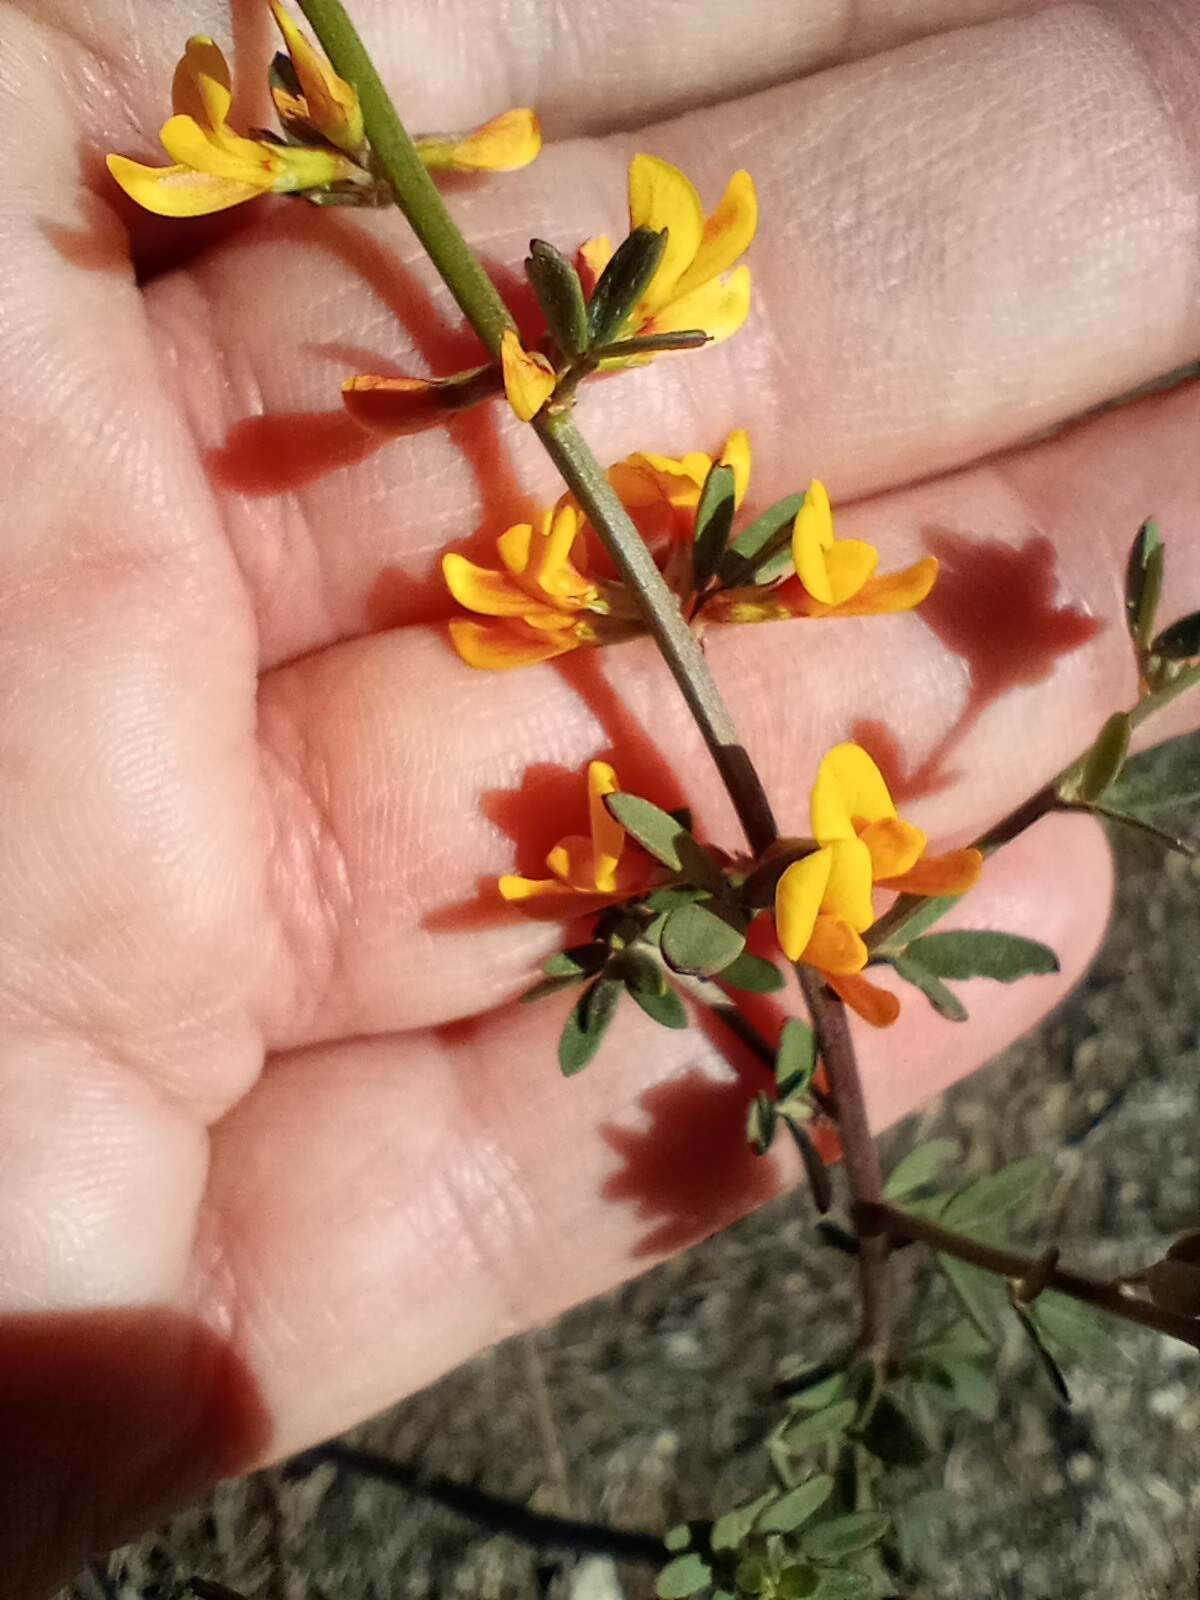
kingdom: Plantae
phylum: Tracheophyta
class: Magnoliopsida
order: Fabales
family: Fabaceae
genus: Acmispon
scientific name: Acmispon glaber
